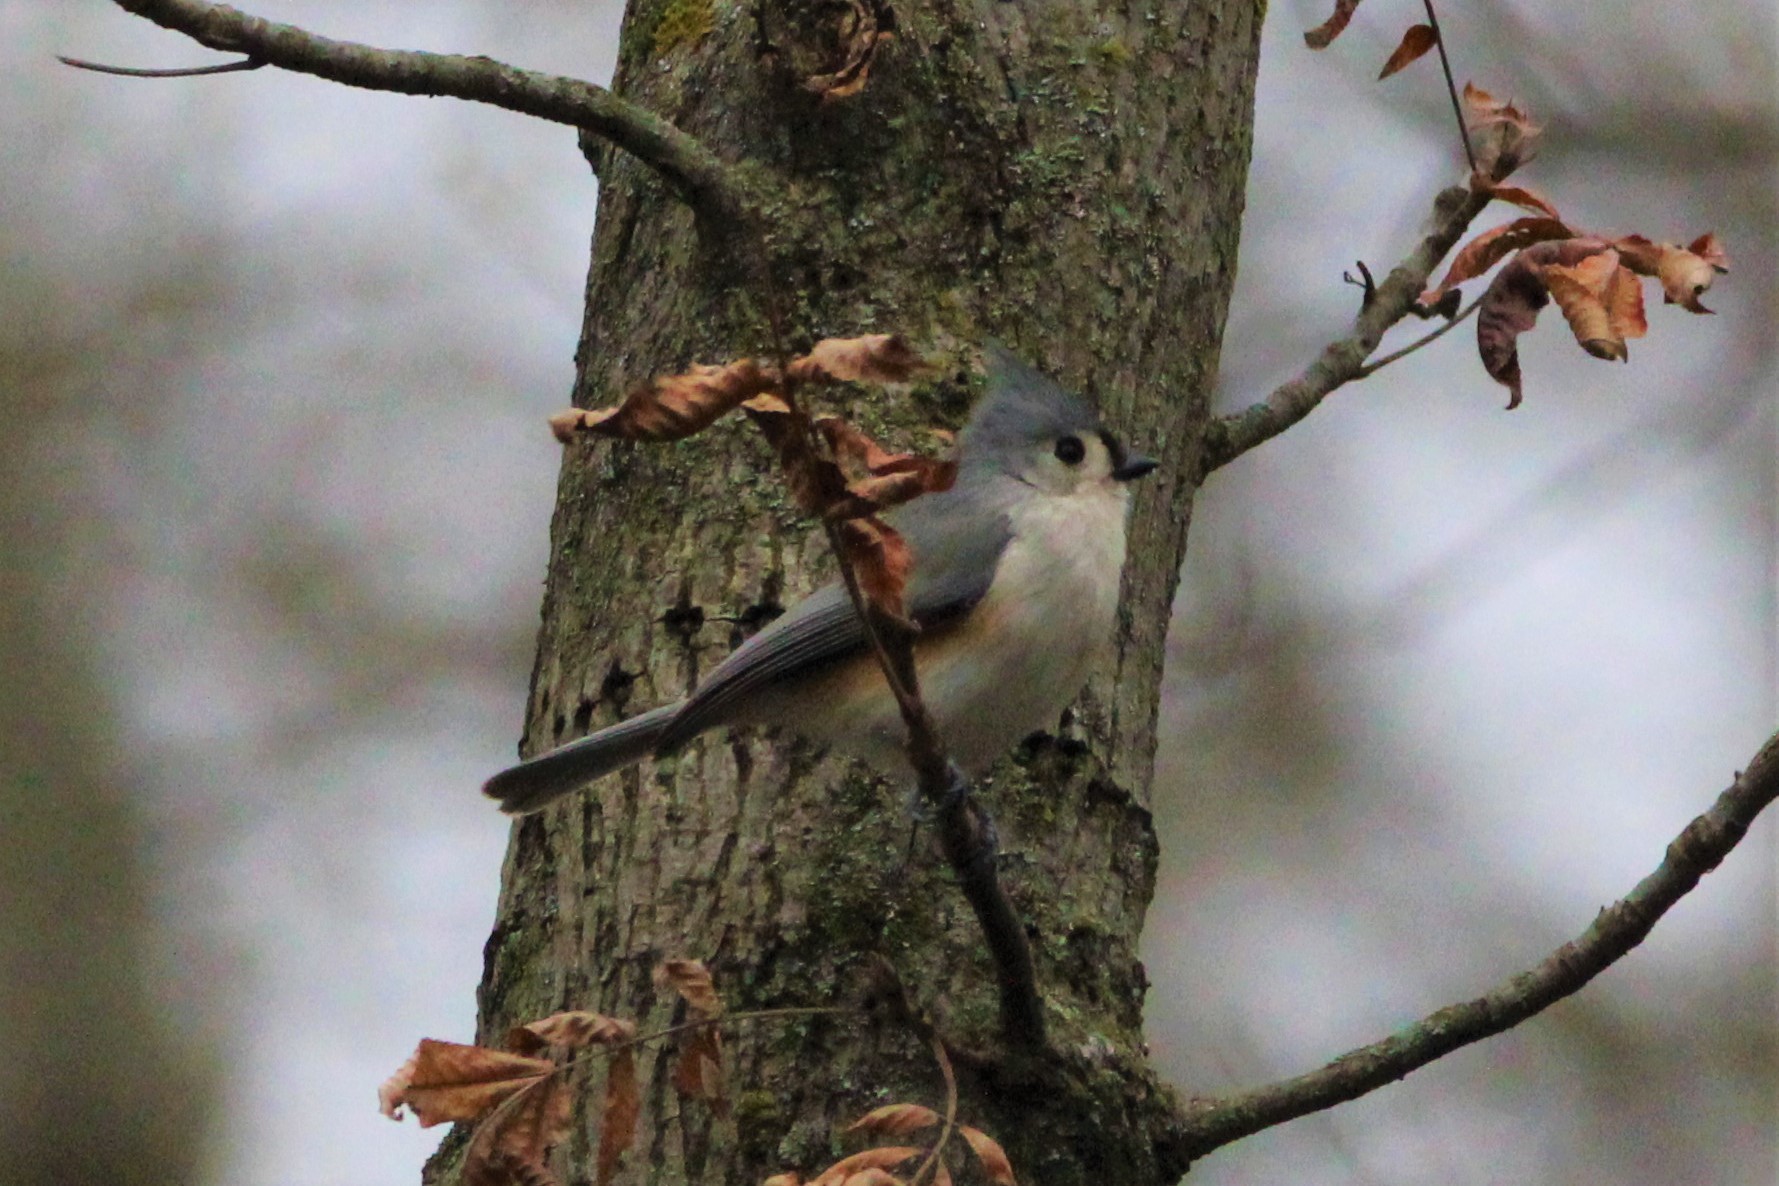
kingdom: Animalia
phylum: Chordata
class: Aves
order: Passeriformes
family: Paridae
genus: Baeolophus
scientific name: Baeolophus bicolor
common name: Tufted titmouse
